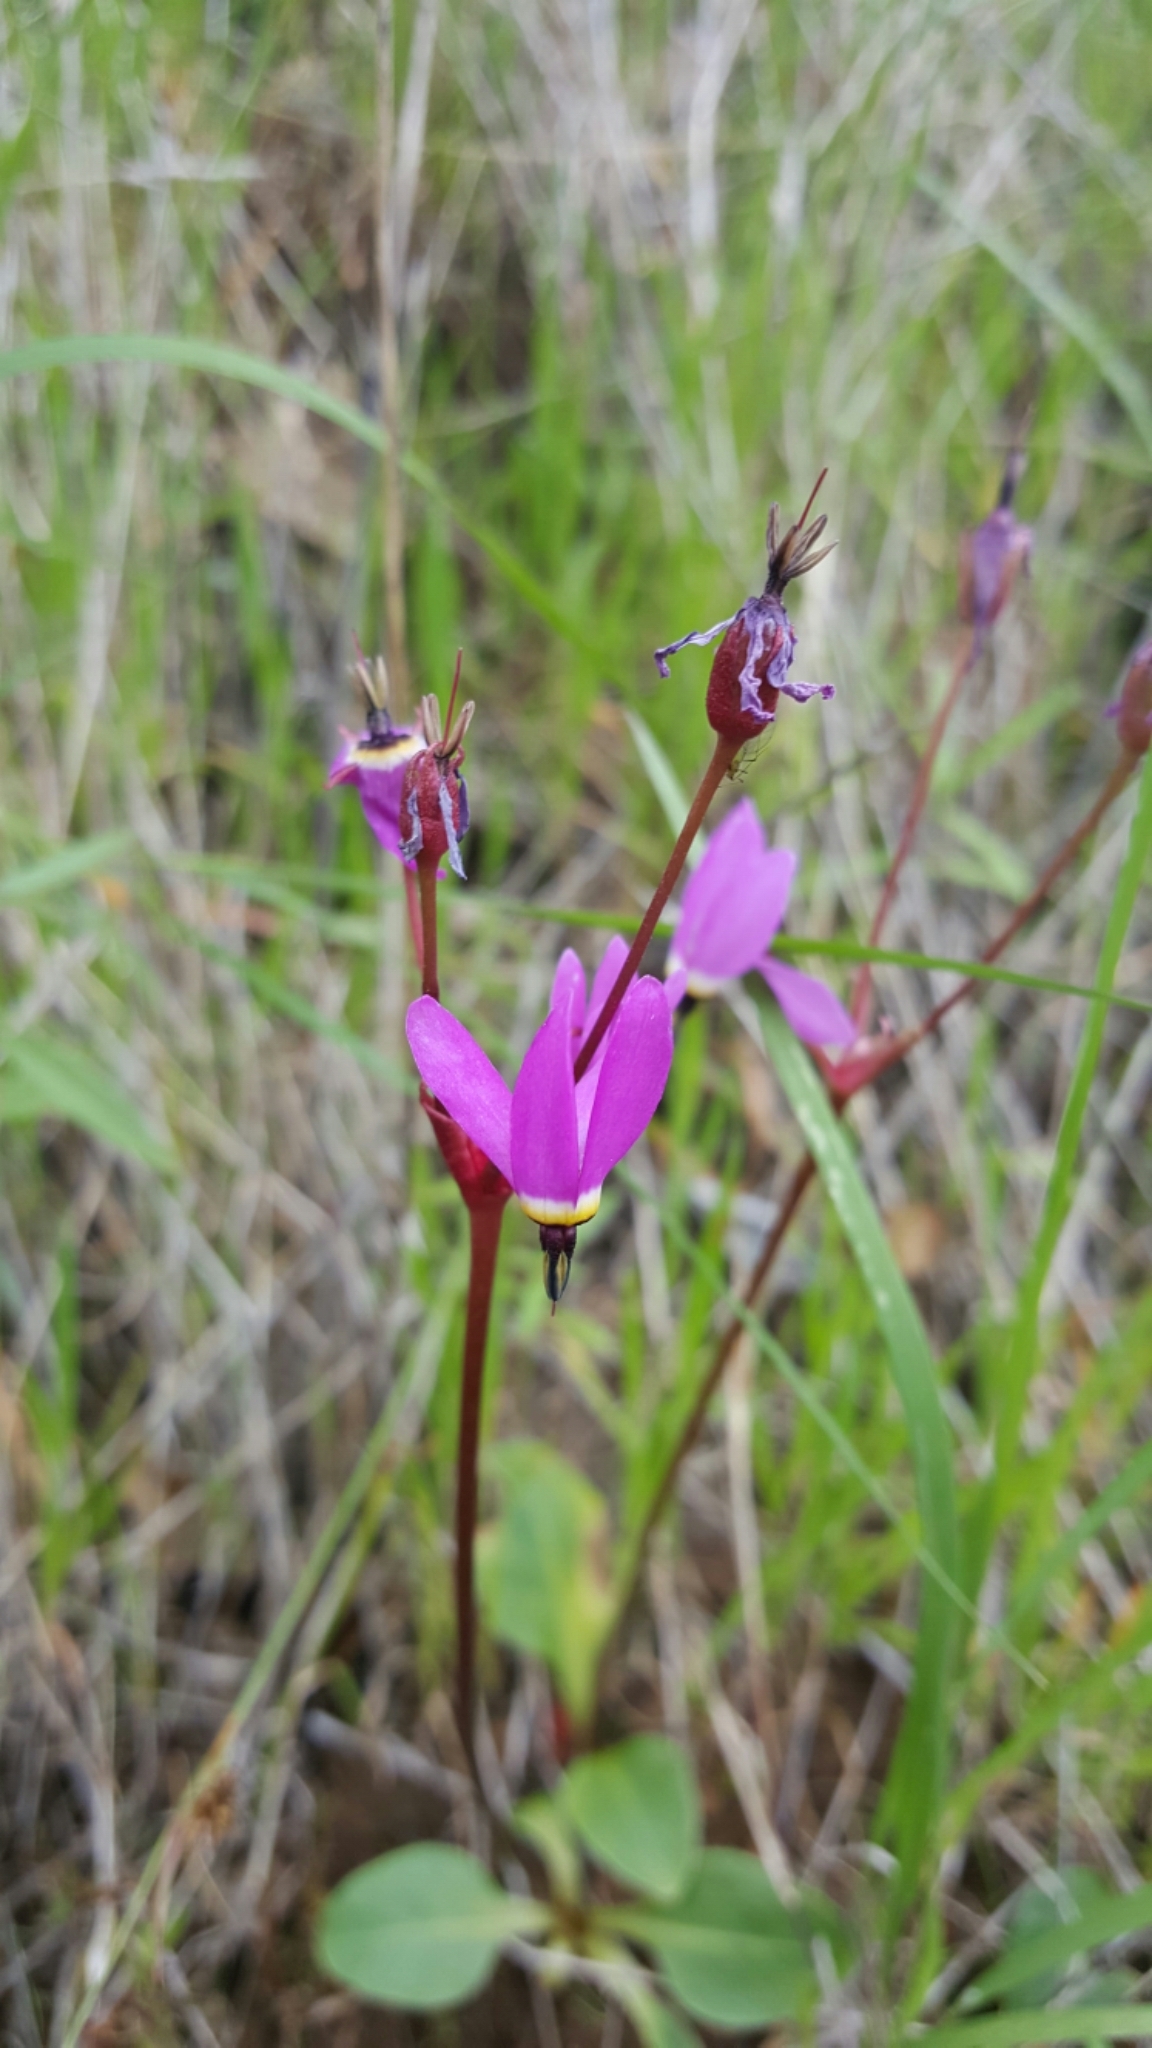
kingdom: Plantae
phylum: Tracheophyta
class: Magnoliopsida
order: Ericales
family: Primulaceae
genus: Dodecatheon
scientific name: Dodecatheon hendersonii
